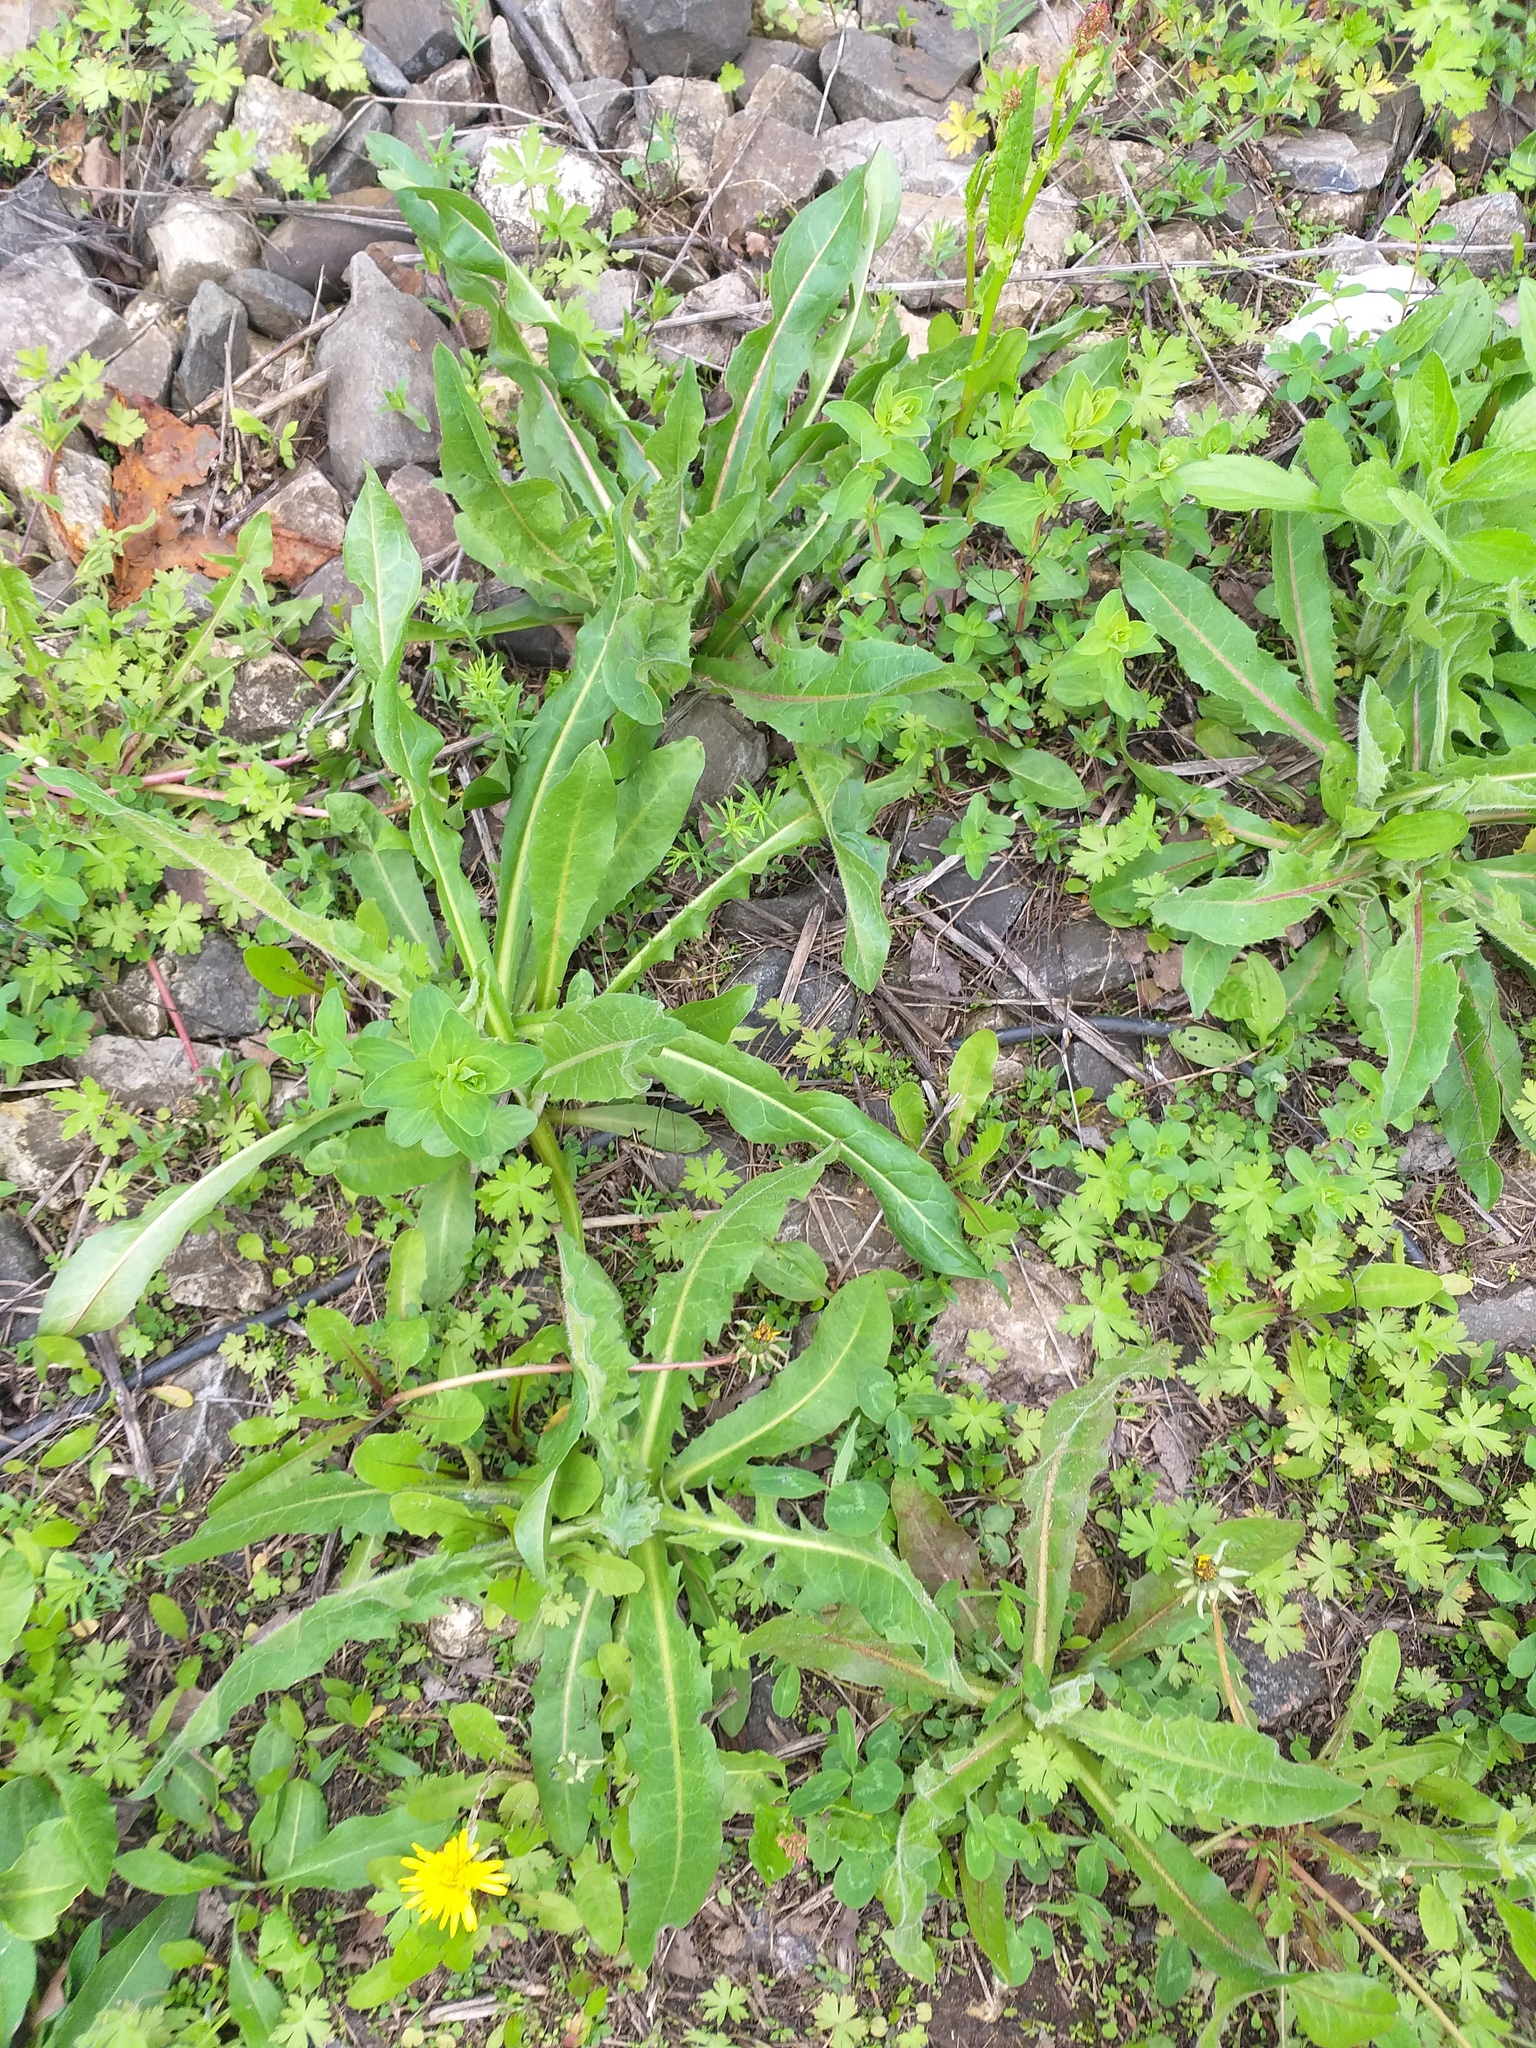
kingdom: Plantae
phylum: Tracheophyta
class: Magnoliopsida
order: Asterales
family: Asteraceae
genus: Cichorium
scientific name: Cichorium intybus
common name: Chicory
